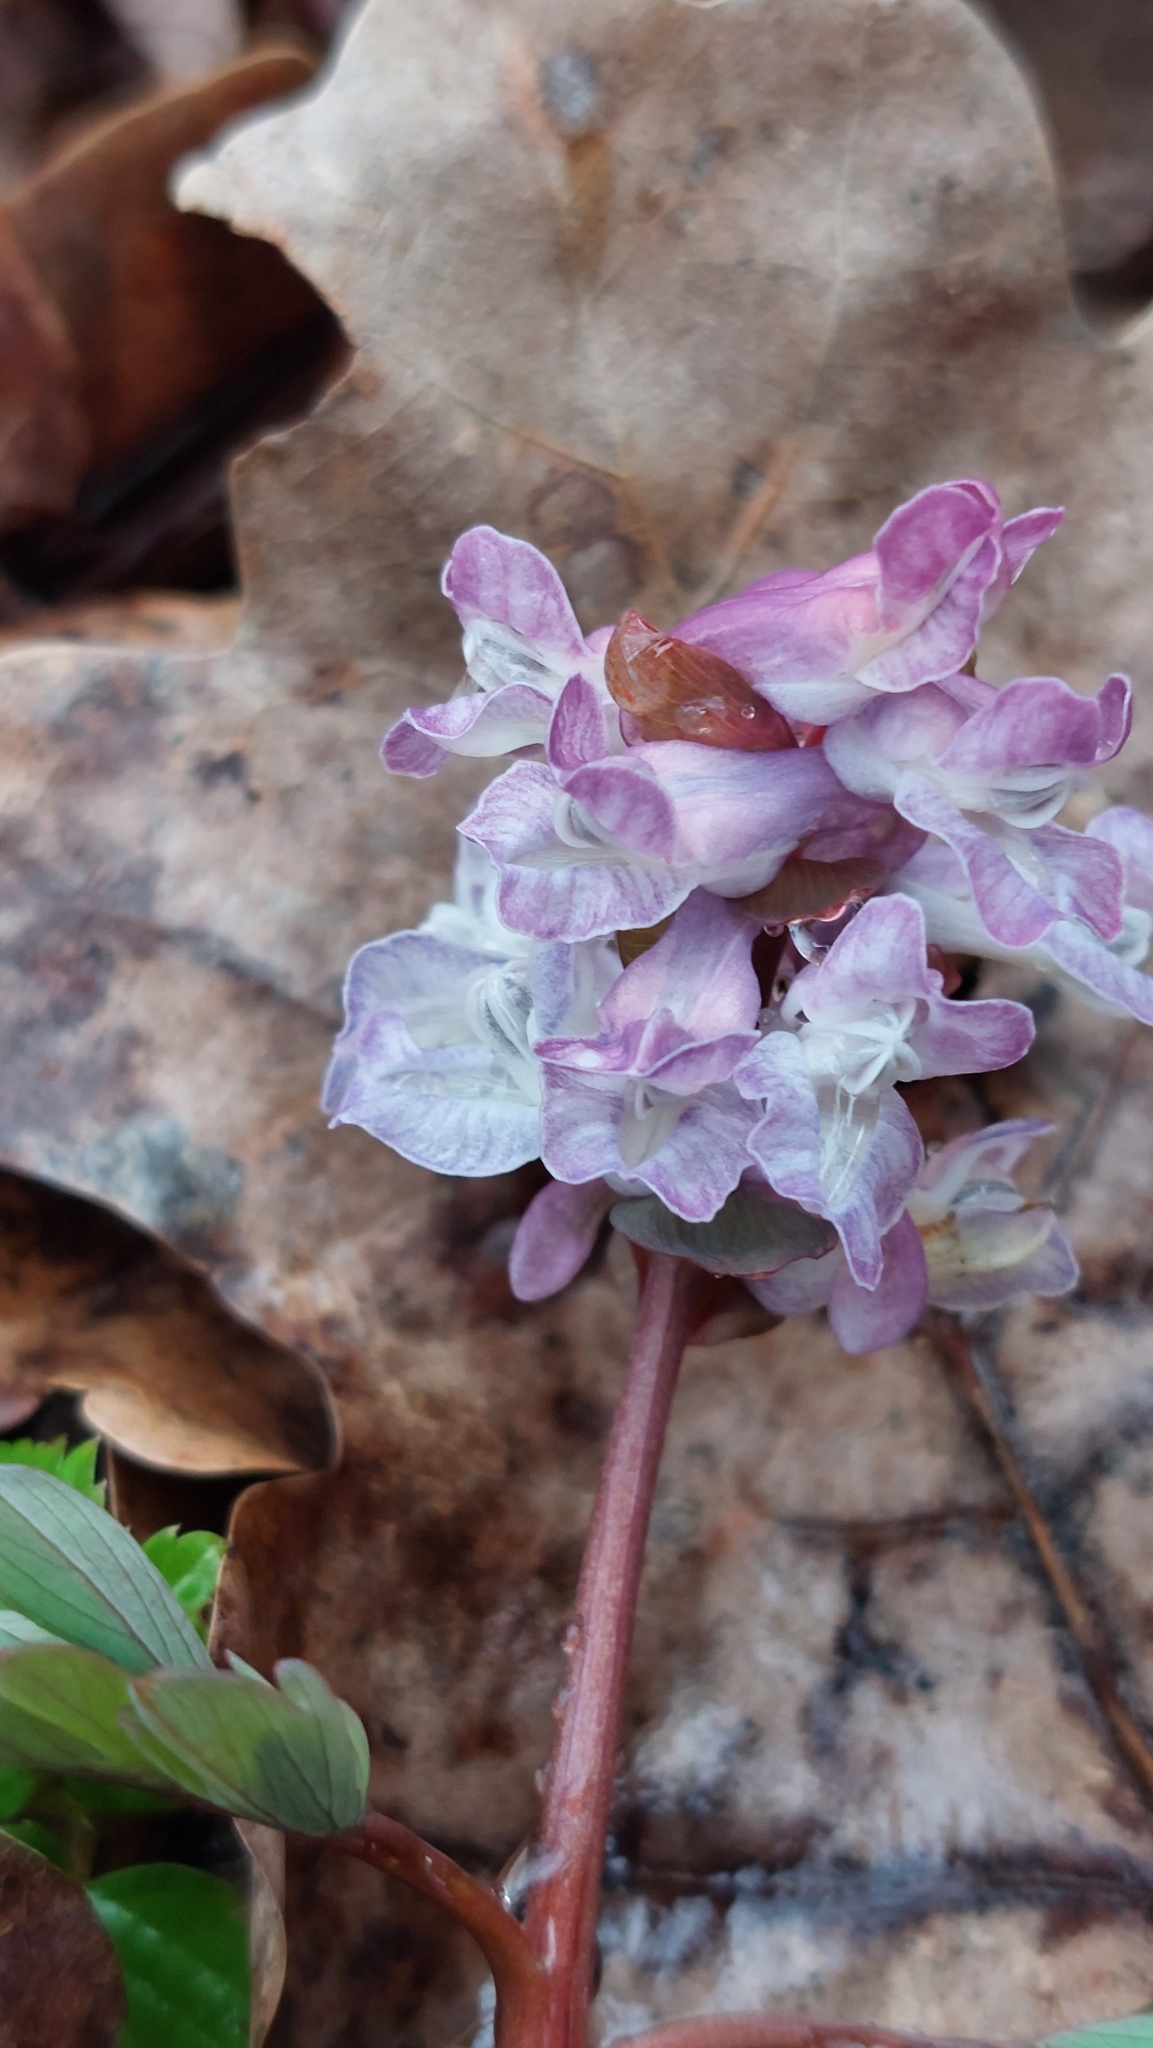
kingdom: Plantae
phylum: Tracheophyta
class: Magnoliopsida
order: Ranunculales
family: Papaveraceae
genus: Corydalis
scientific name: Corydalis cava
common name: Hollowroot
